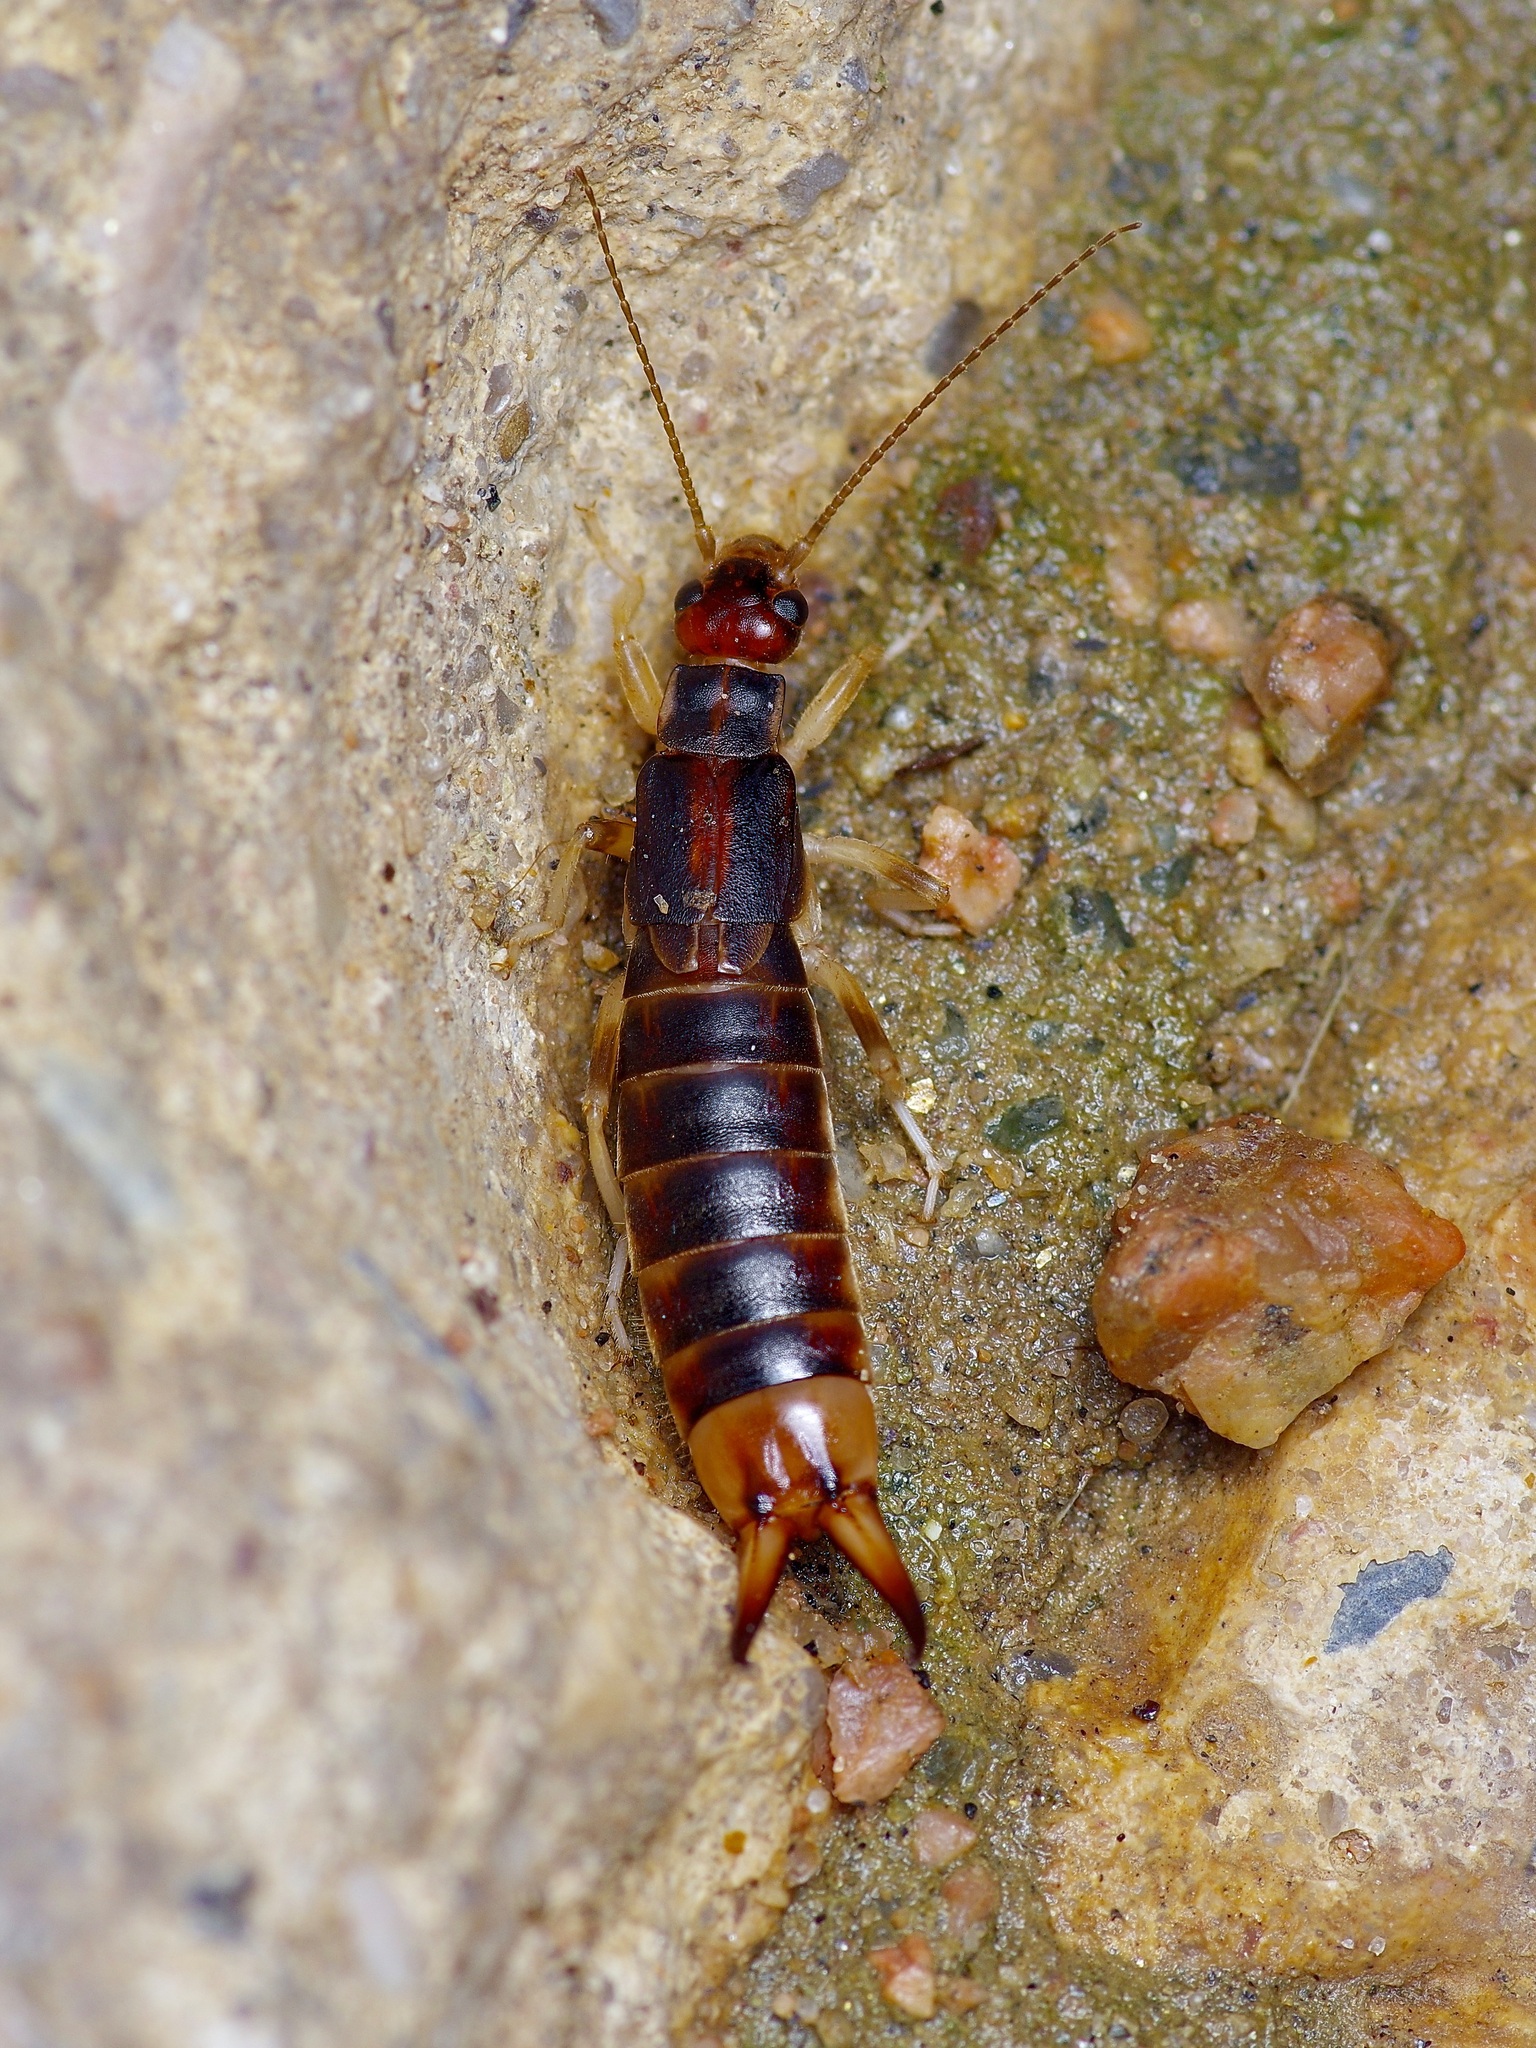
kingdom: Animalia
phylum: Arthropoda
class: Insecta
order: Dermaptera
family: Labiduridae
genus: Labidura
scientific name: Labidura riparia
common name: Striped earwig
